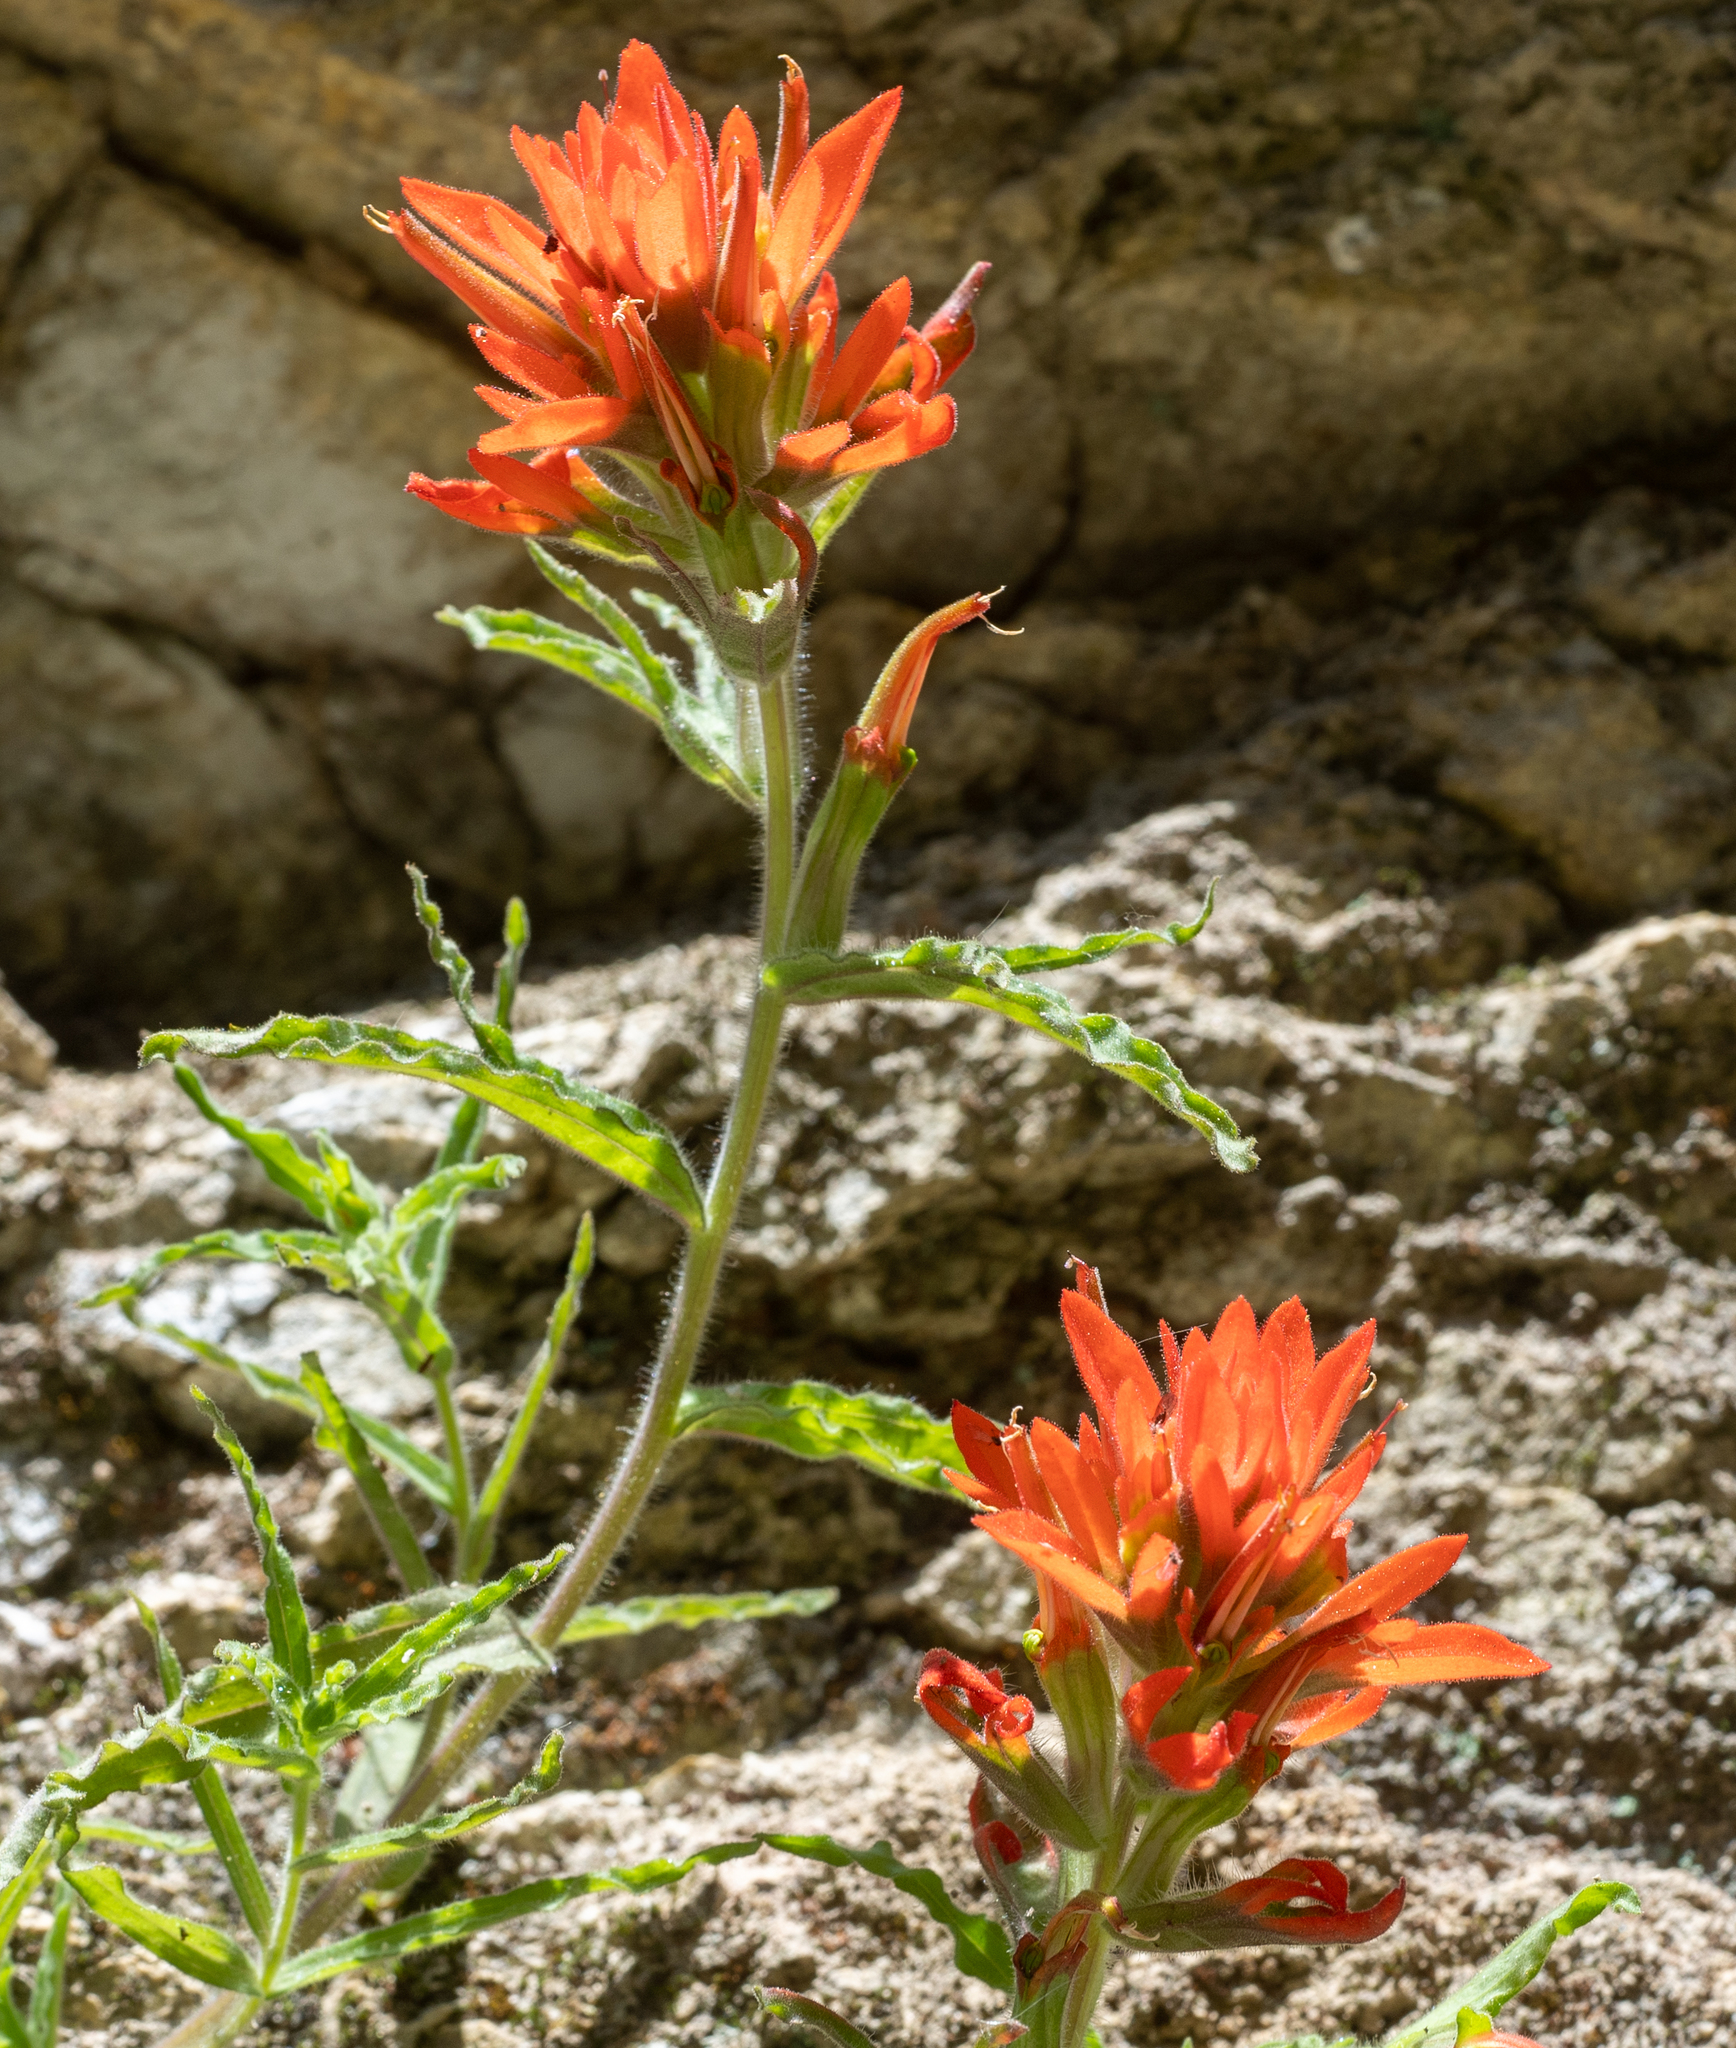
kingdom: Plantae
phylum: Tracheophyta
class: Magnoliopsida
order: Lamiales
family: Orobanchaceae
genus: Castilleja
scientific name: Castilleja martini
